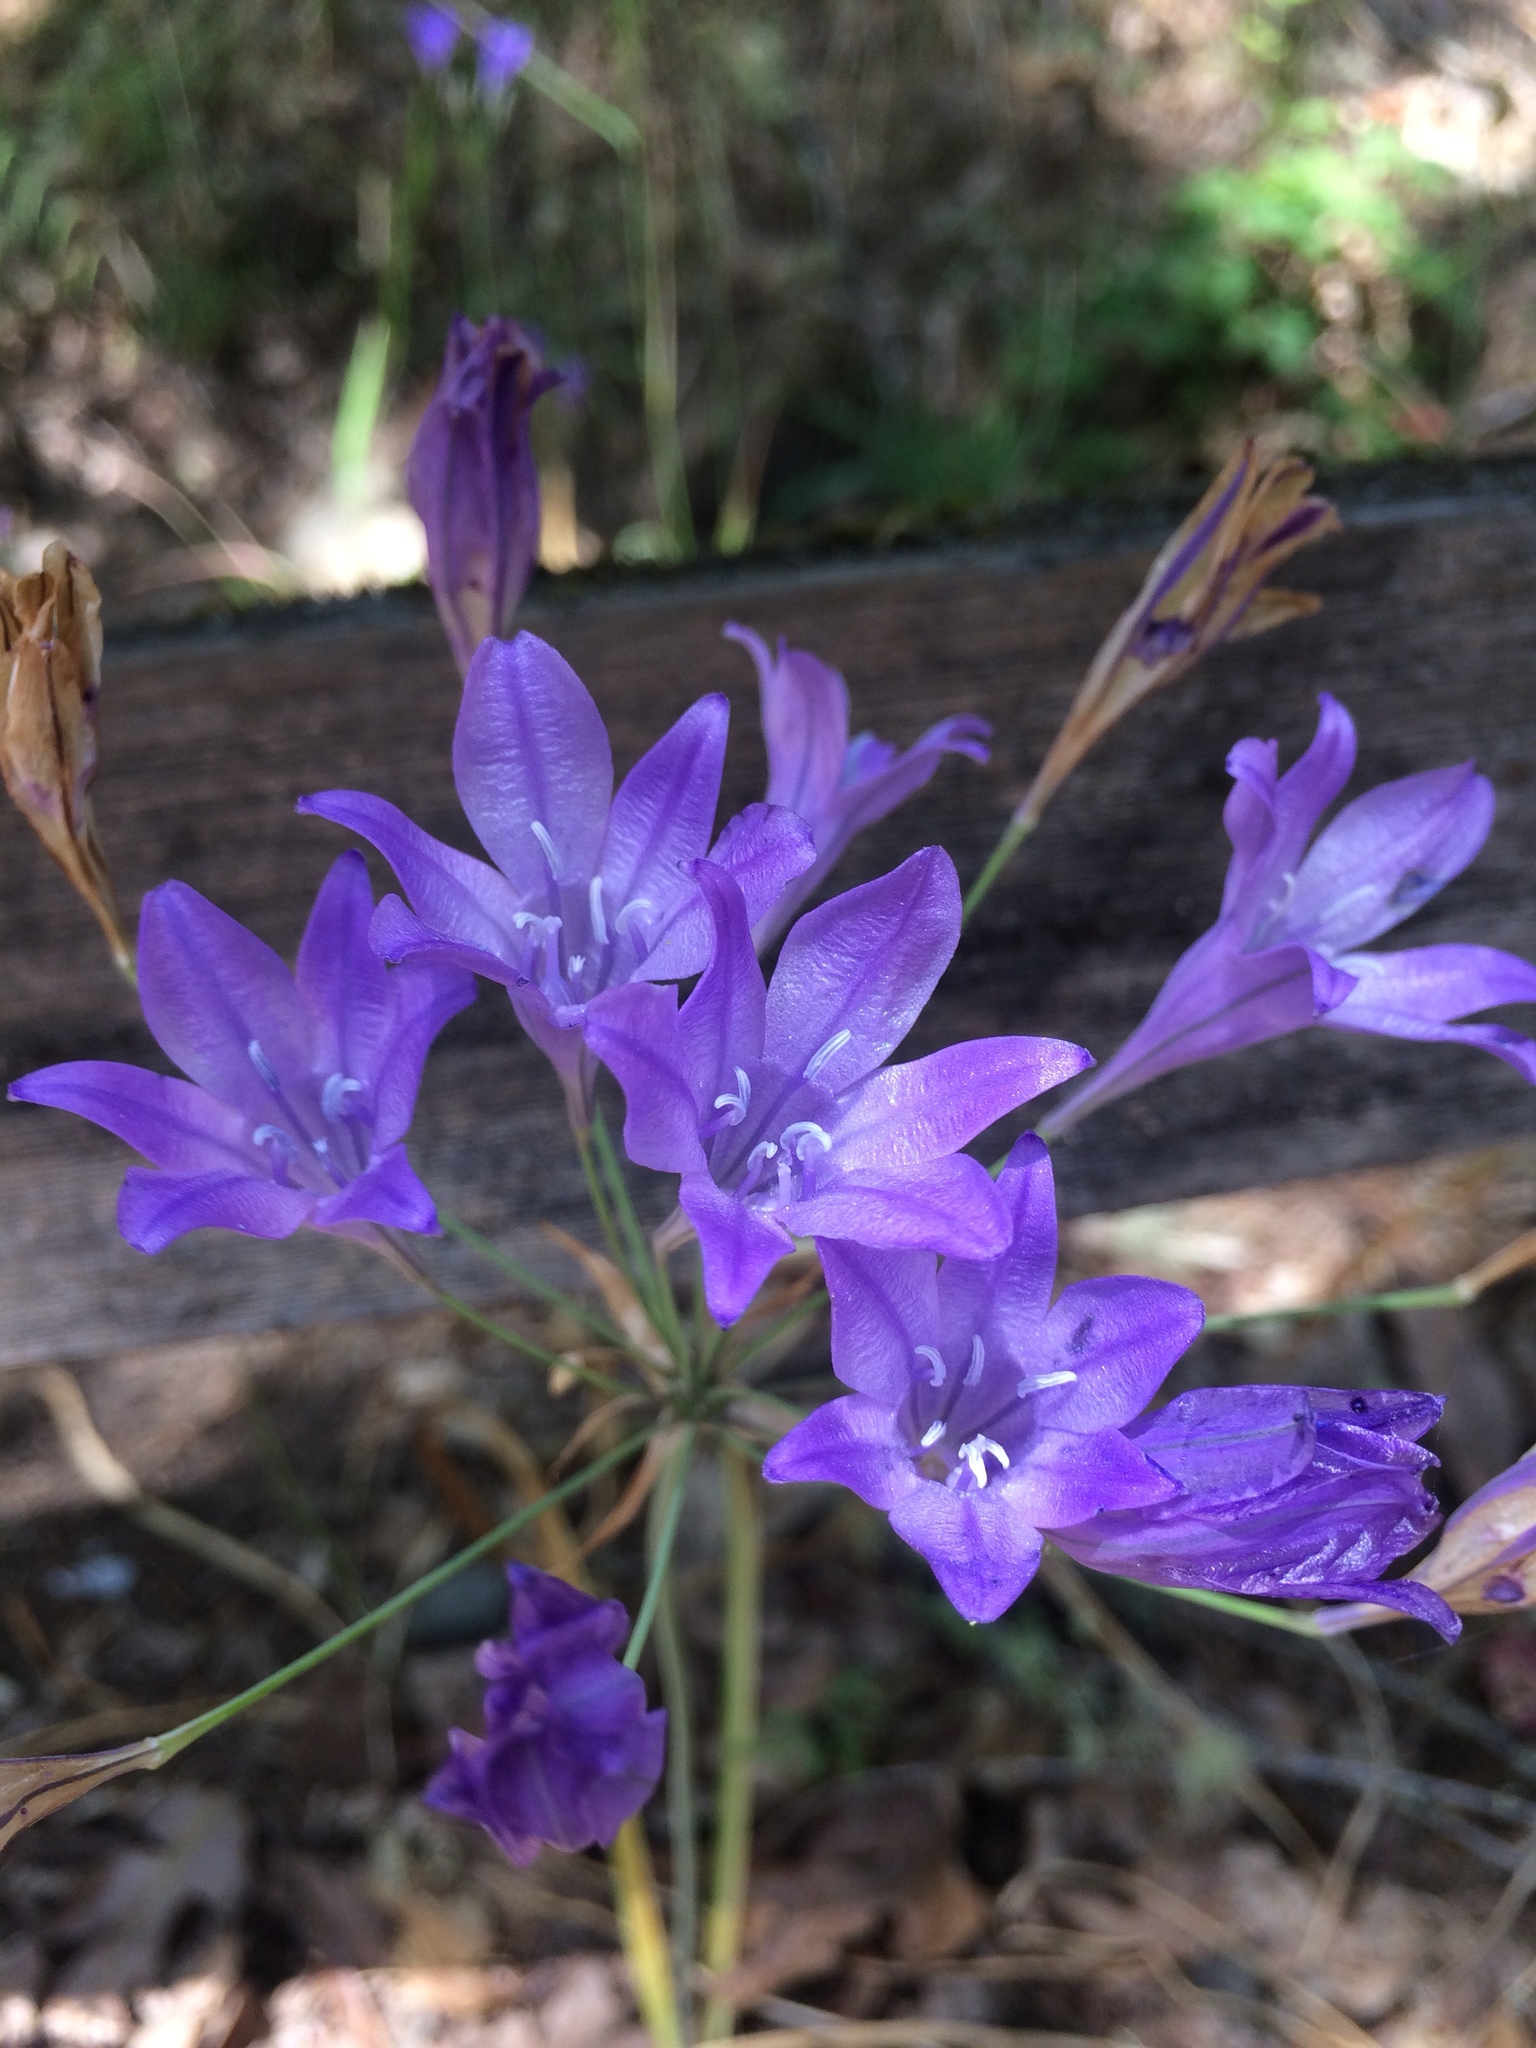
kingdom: Plantae
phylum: Tracheophyta
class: Liliopsida
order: Asparagales
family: Asparagaceae
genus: Triteleia
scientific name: Triteleia laxa
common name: Triplet-lily
